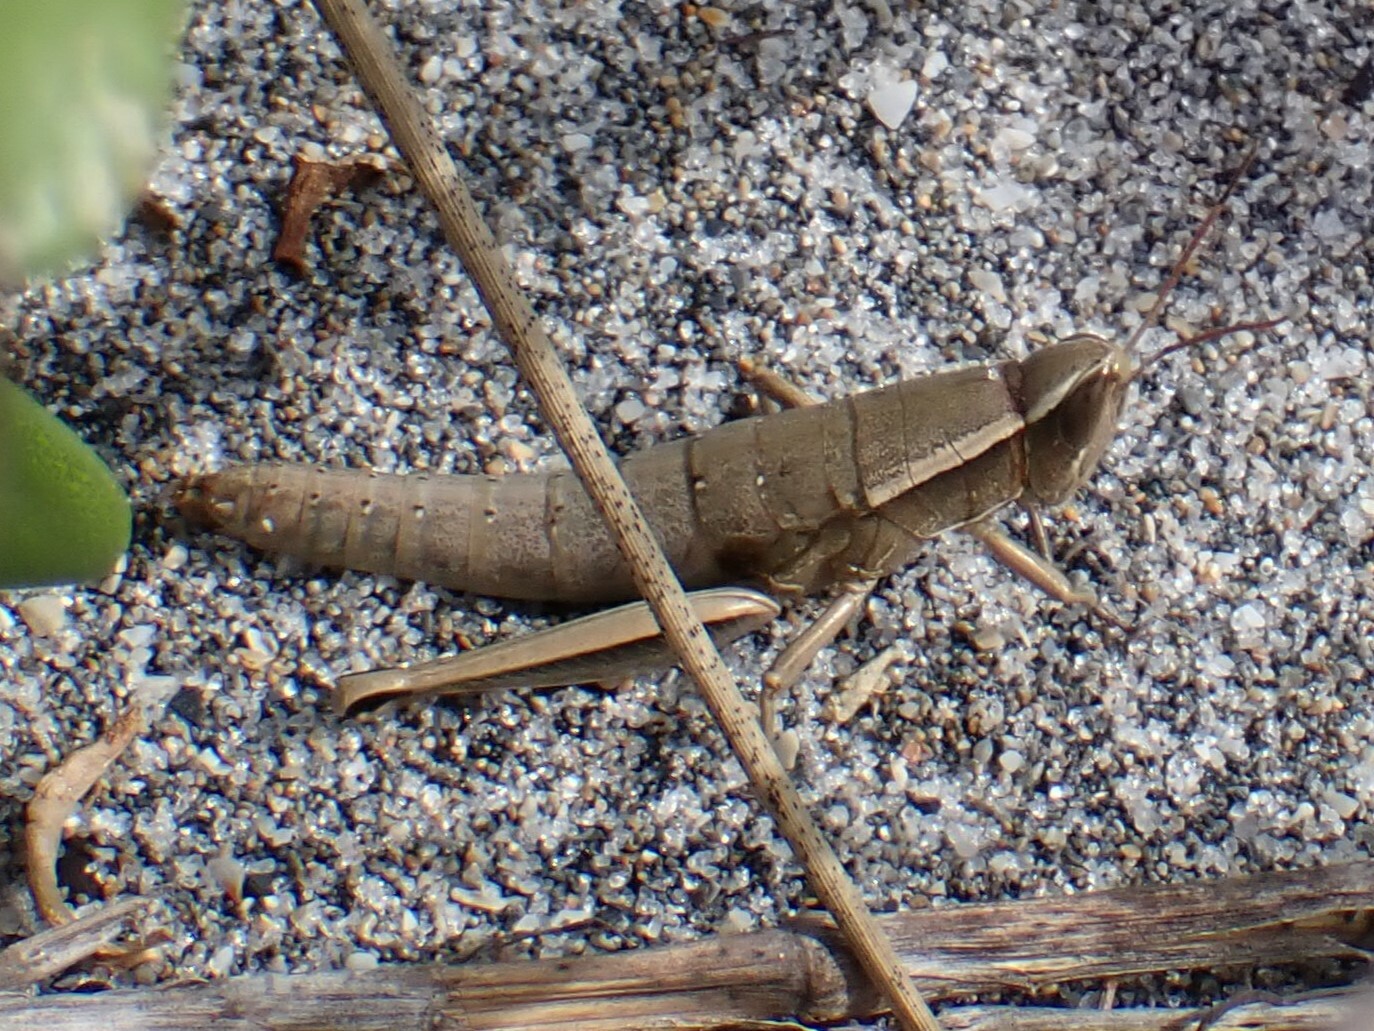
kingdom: Animalia
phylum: Arthropoda
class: Insecta
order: Orthoptera
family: Acrididae
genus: Aptenopedes
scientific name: Aptenopedes sphenarioides
